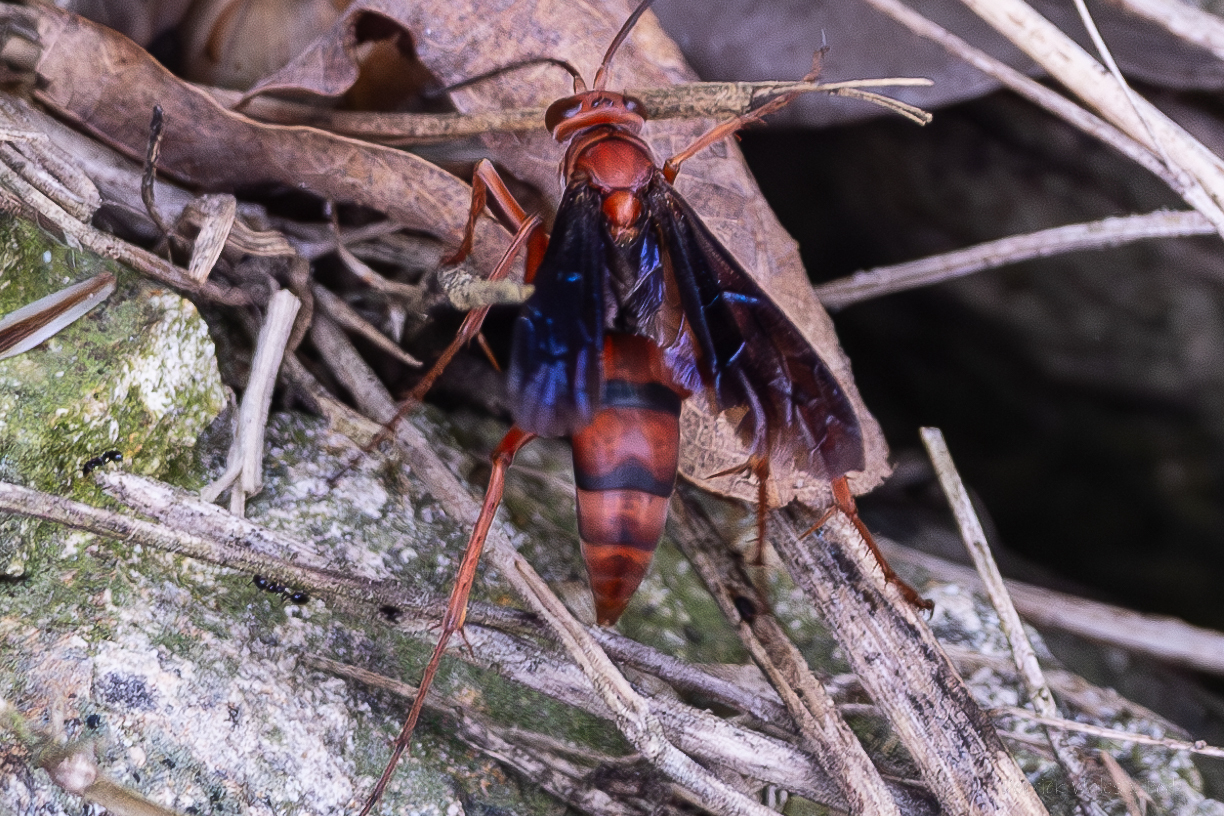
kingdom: Animalia
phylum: Arthropoda
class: Insecta
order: Hymenoptera
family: Pompilidae
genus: Tachypompilus
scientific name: Tachypompilus ferrugineus
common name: Rusty spider wasp
